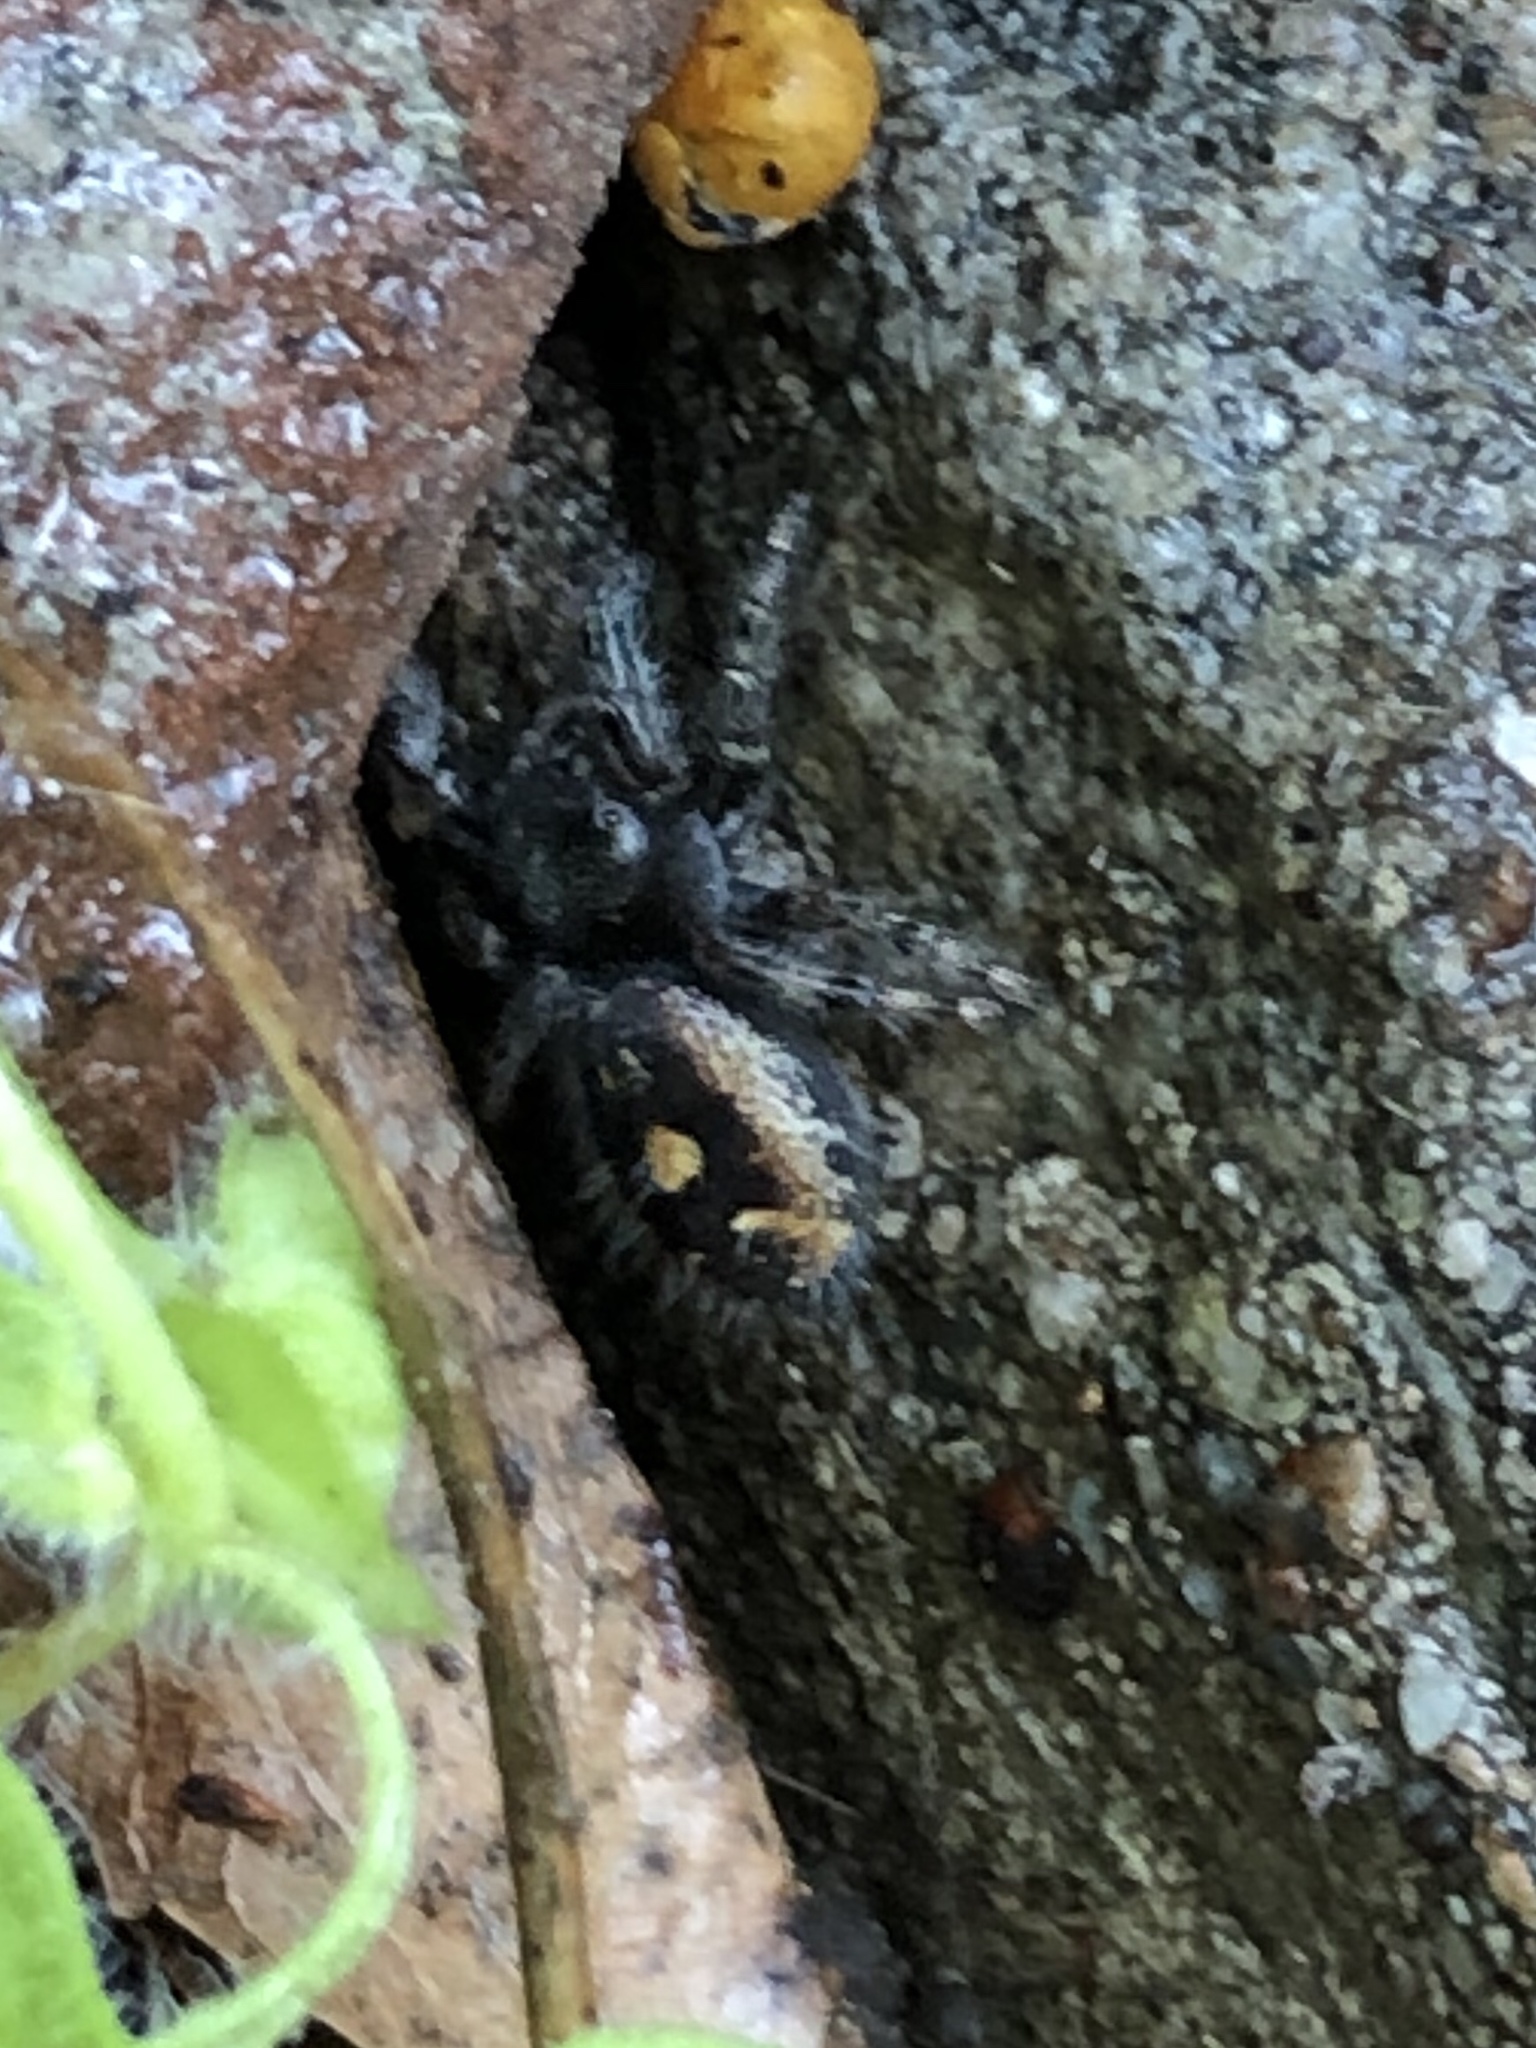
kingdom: Animalia
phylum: Arthropoda
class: Arachnida
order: Araneae
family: Salticidae
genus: Phidippus
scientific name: Phidippus audax
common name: Bold jumper
